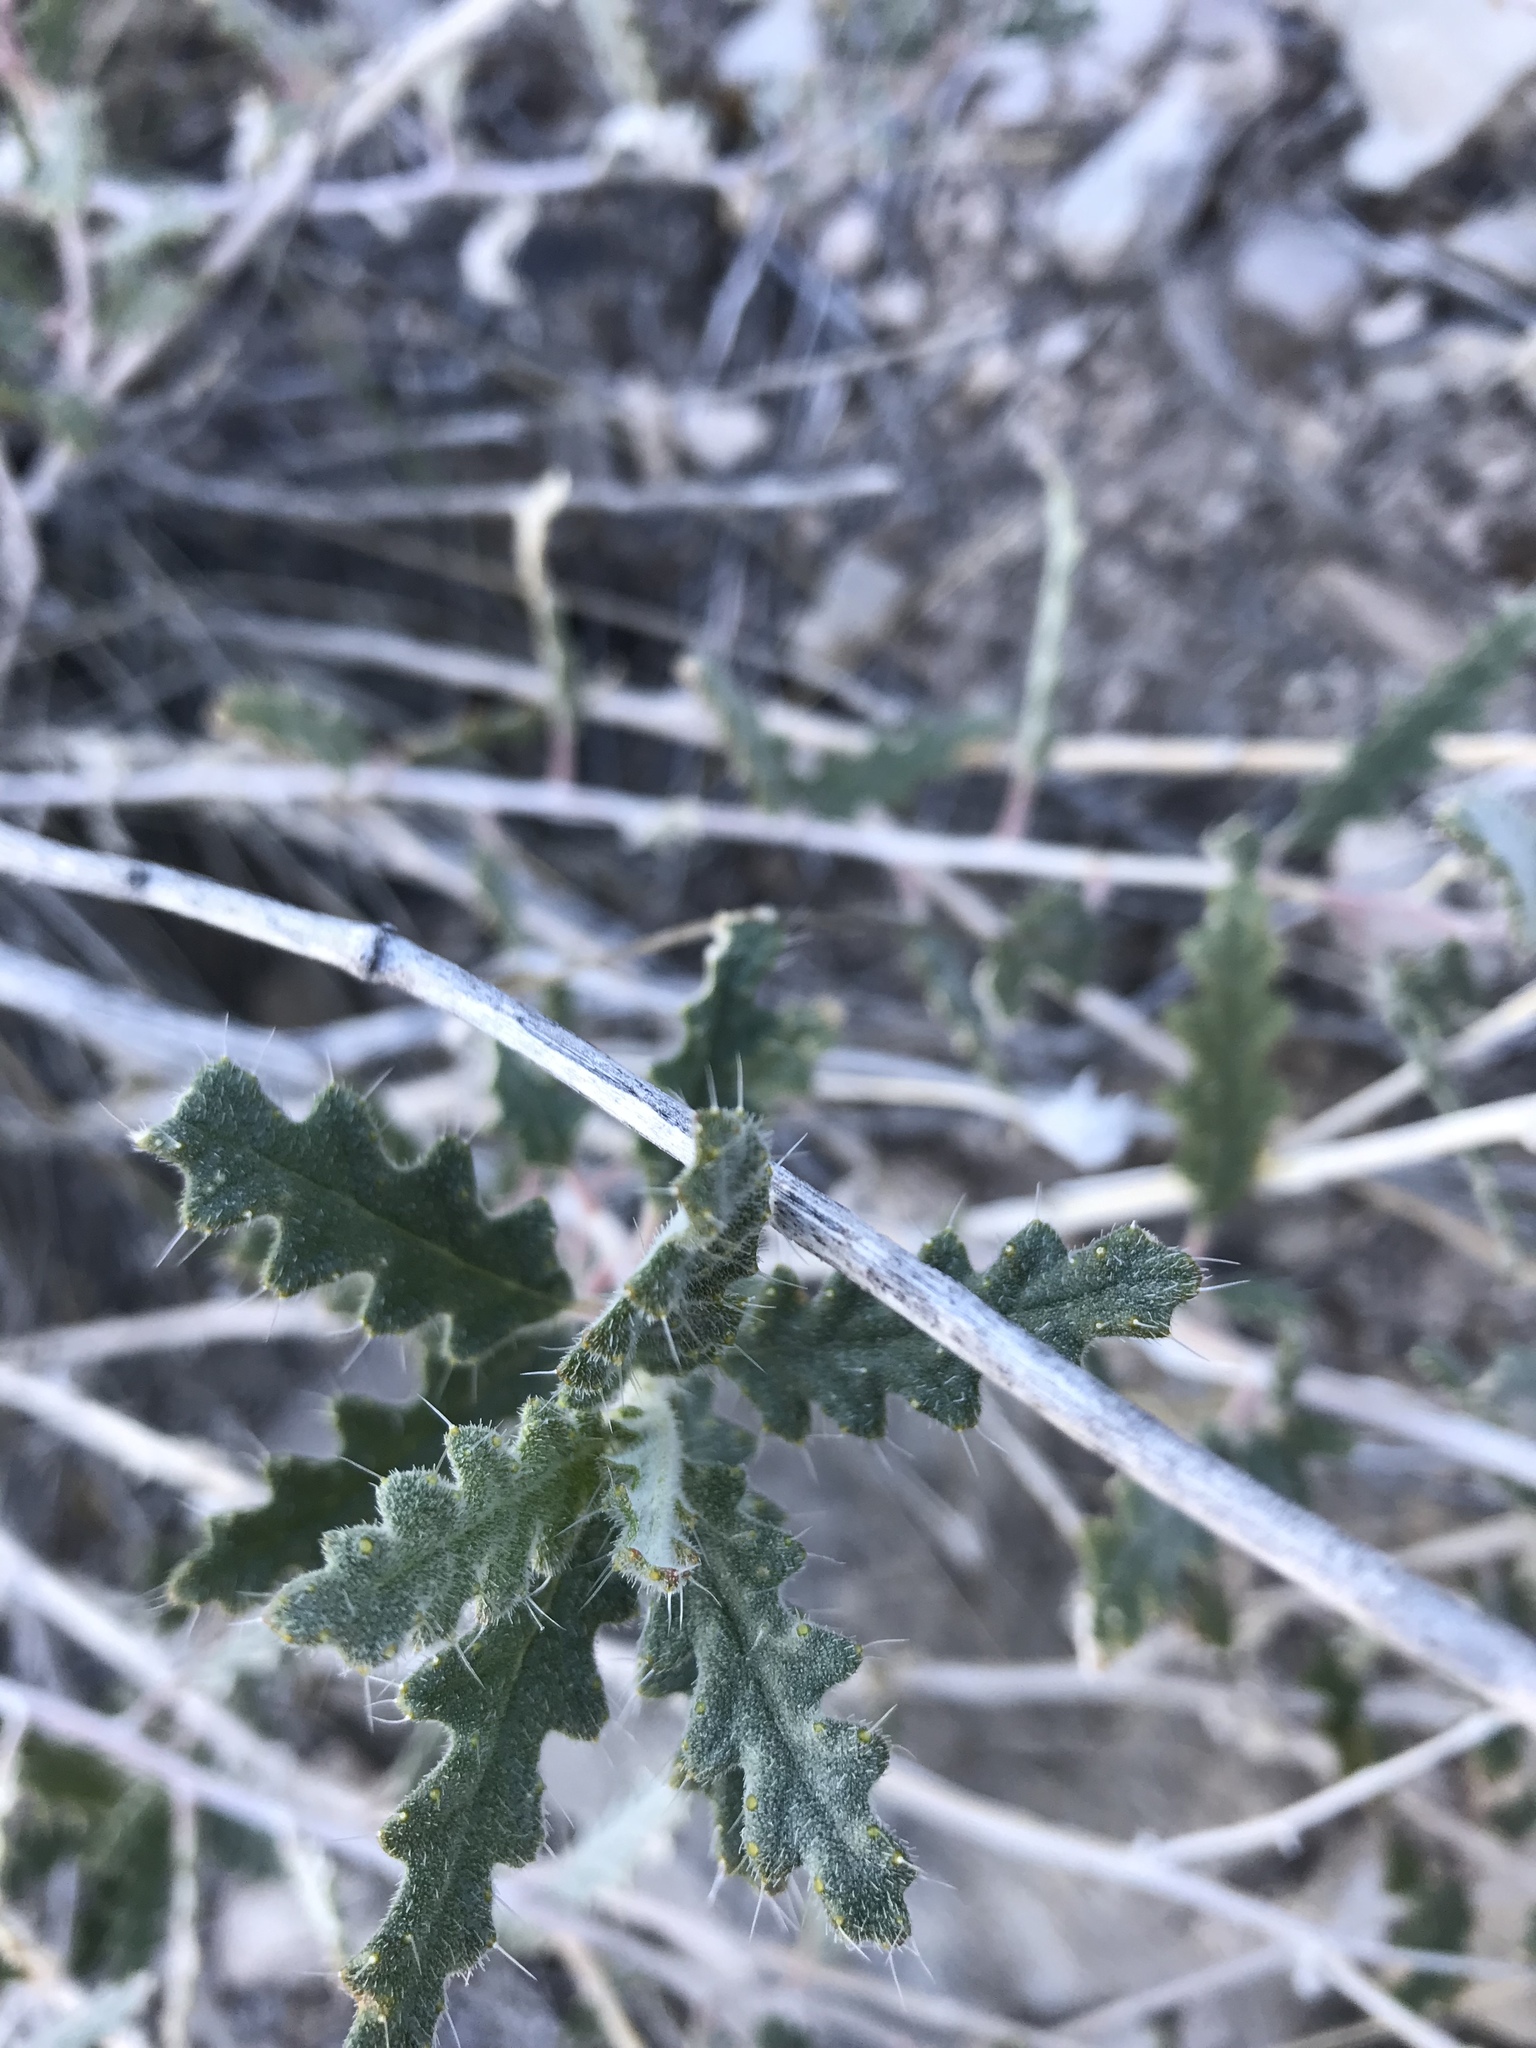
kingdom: Plantae
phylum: Tracheophyta
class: Magnoliopsida
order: Cornales
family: Loasaceae
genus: Cevallia
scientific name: Cevallia sinuata
